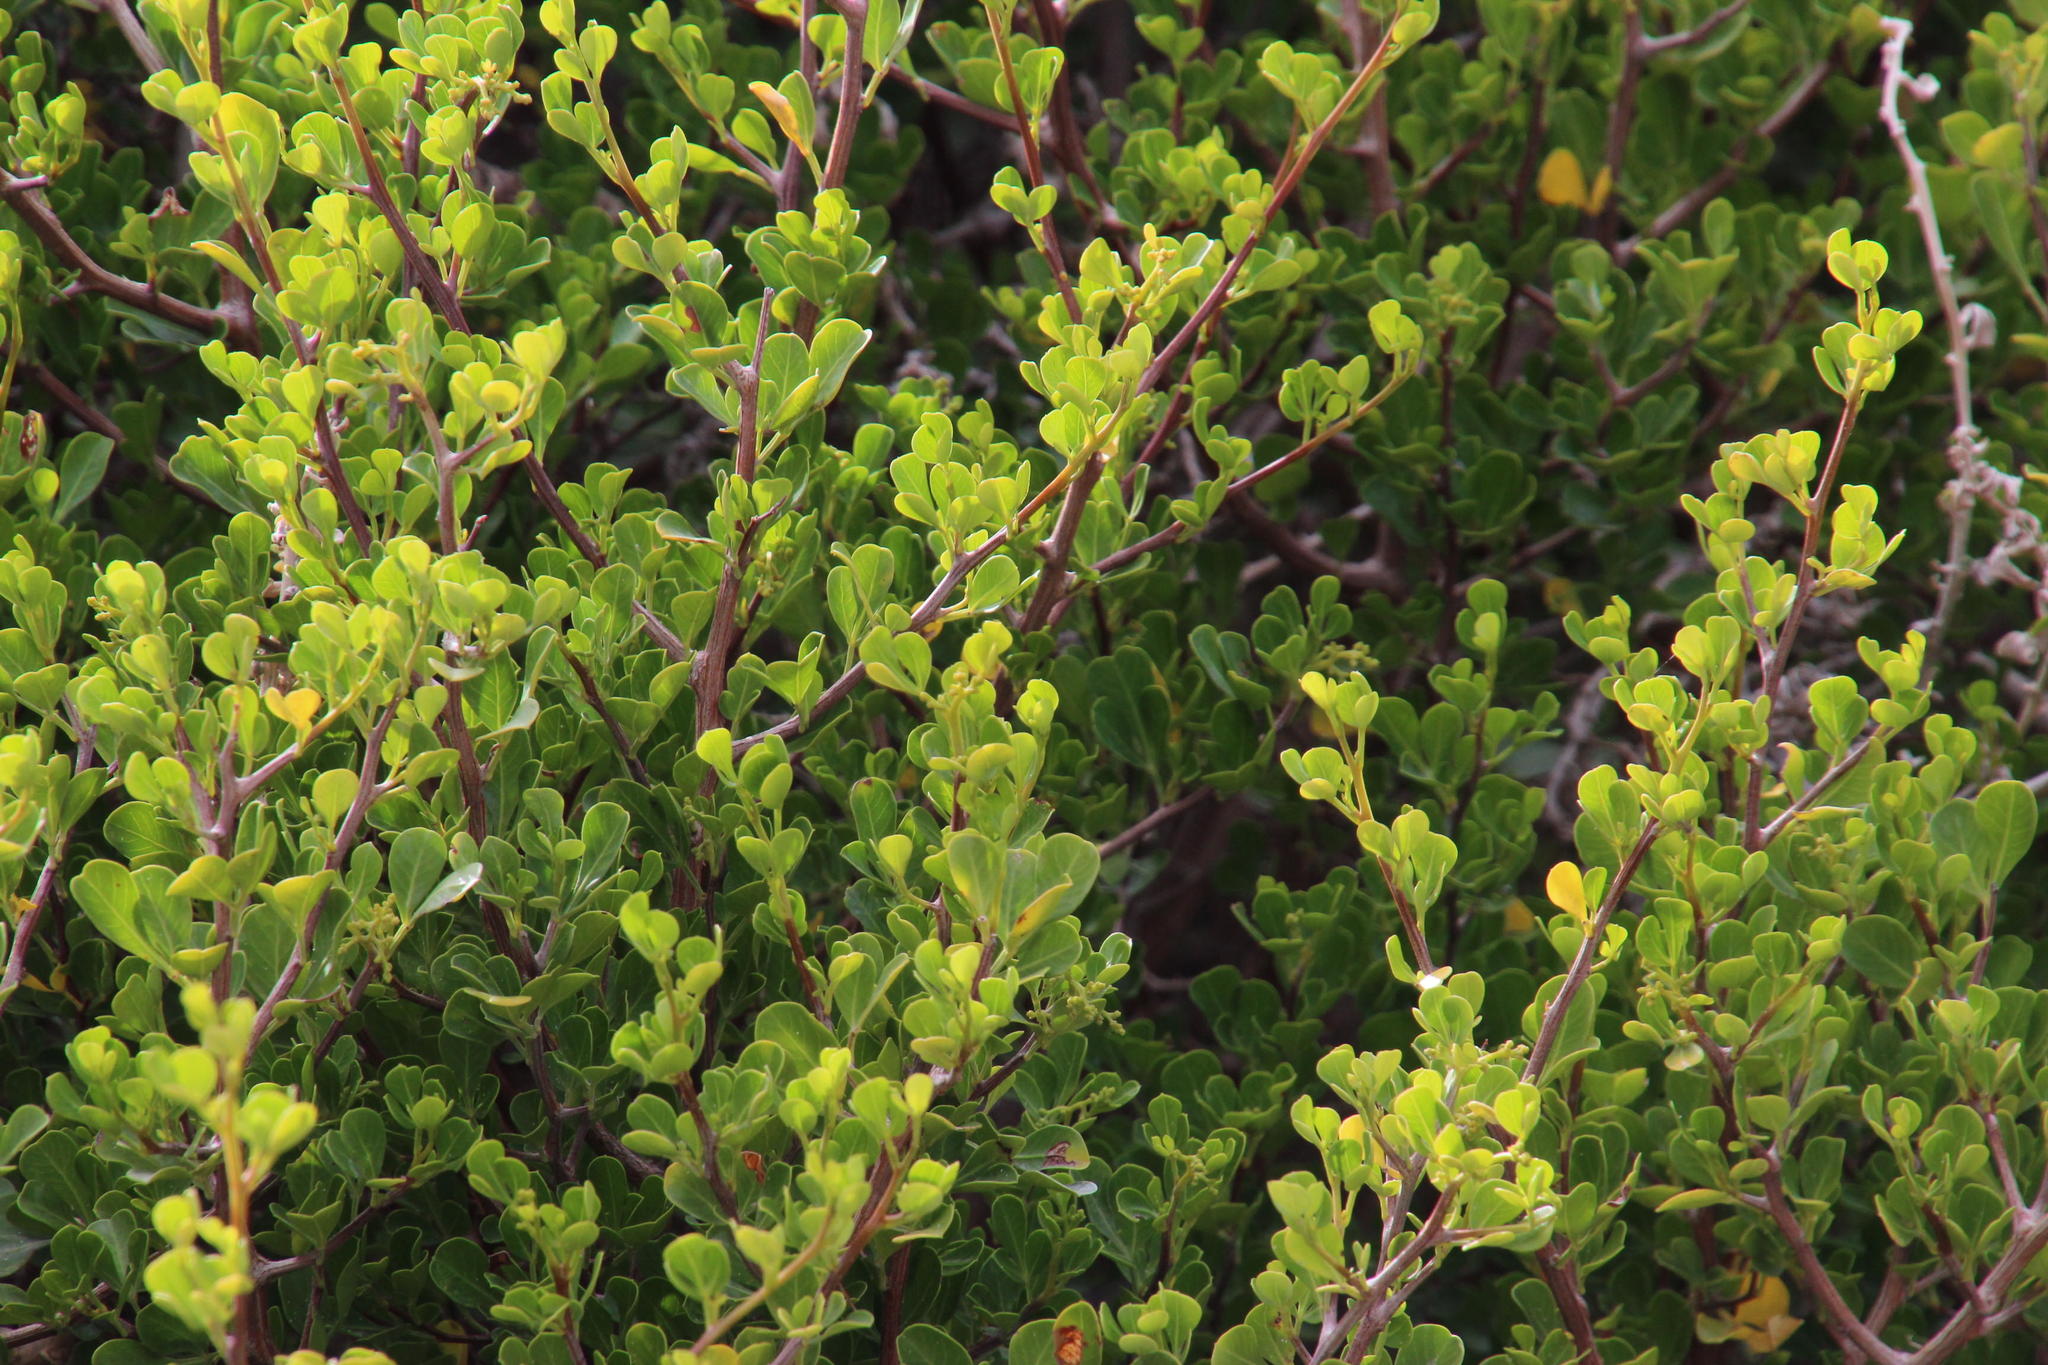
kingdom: Plantae
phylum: Tracheophyta
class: Magnoliopsida
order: Sapindales
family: Anacardiaceae
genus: Searsia
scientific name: Searsia glauca
